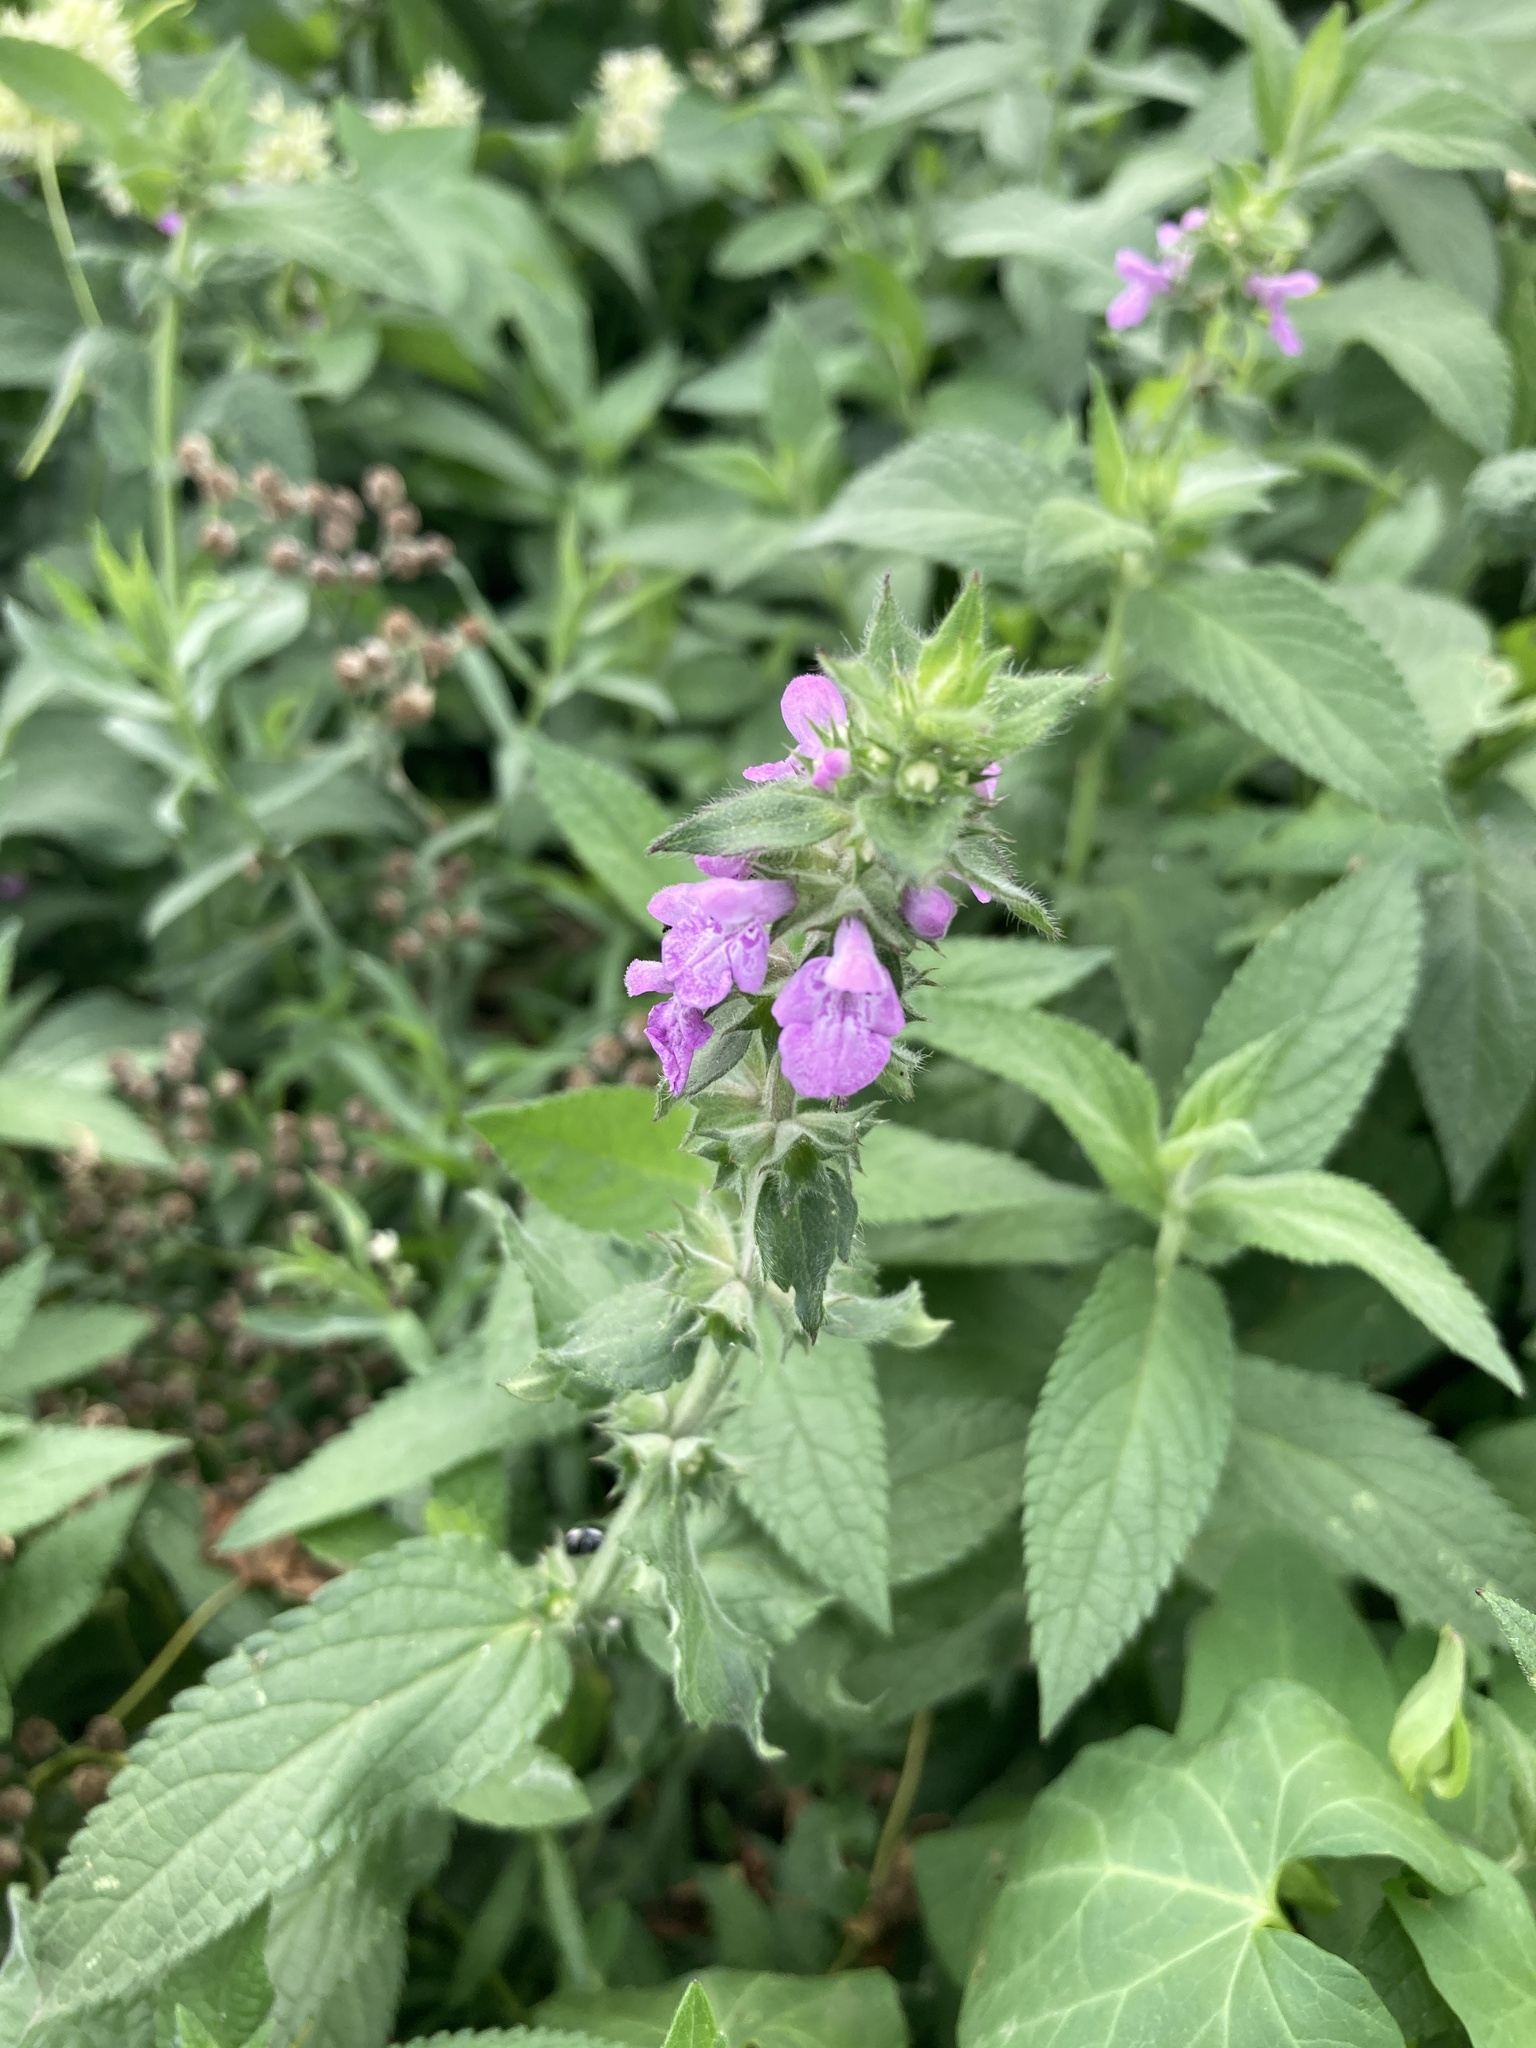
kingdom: Plantae
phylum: Tracheophyta
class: Magnoliopsida
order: Lamiales
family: Lamiaceae
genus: Stachys
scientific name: Stachys palustris
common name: Marsh woundwort
